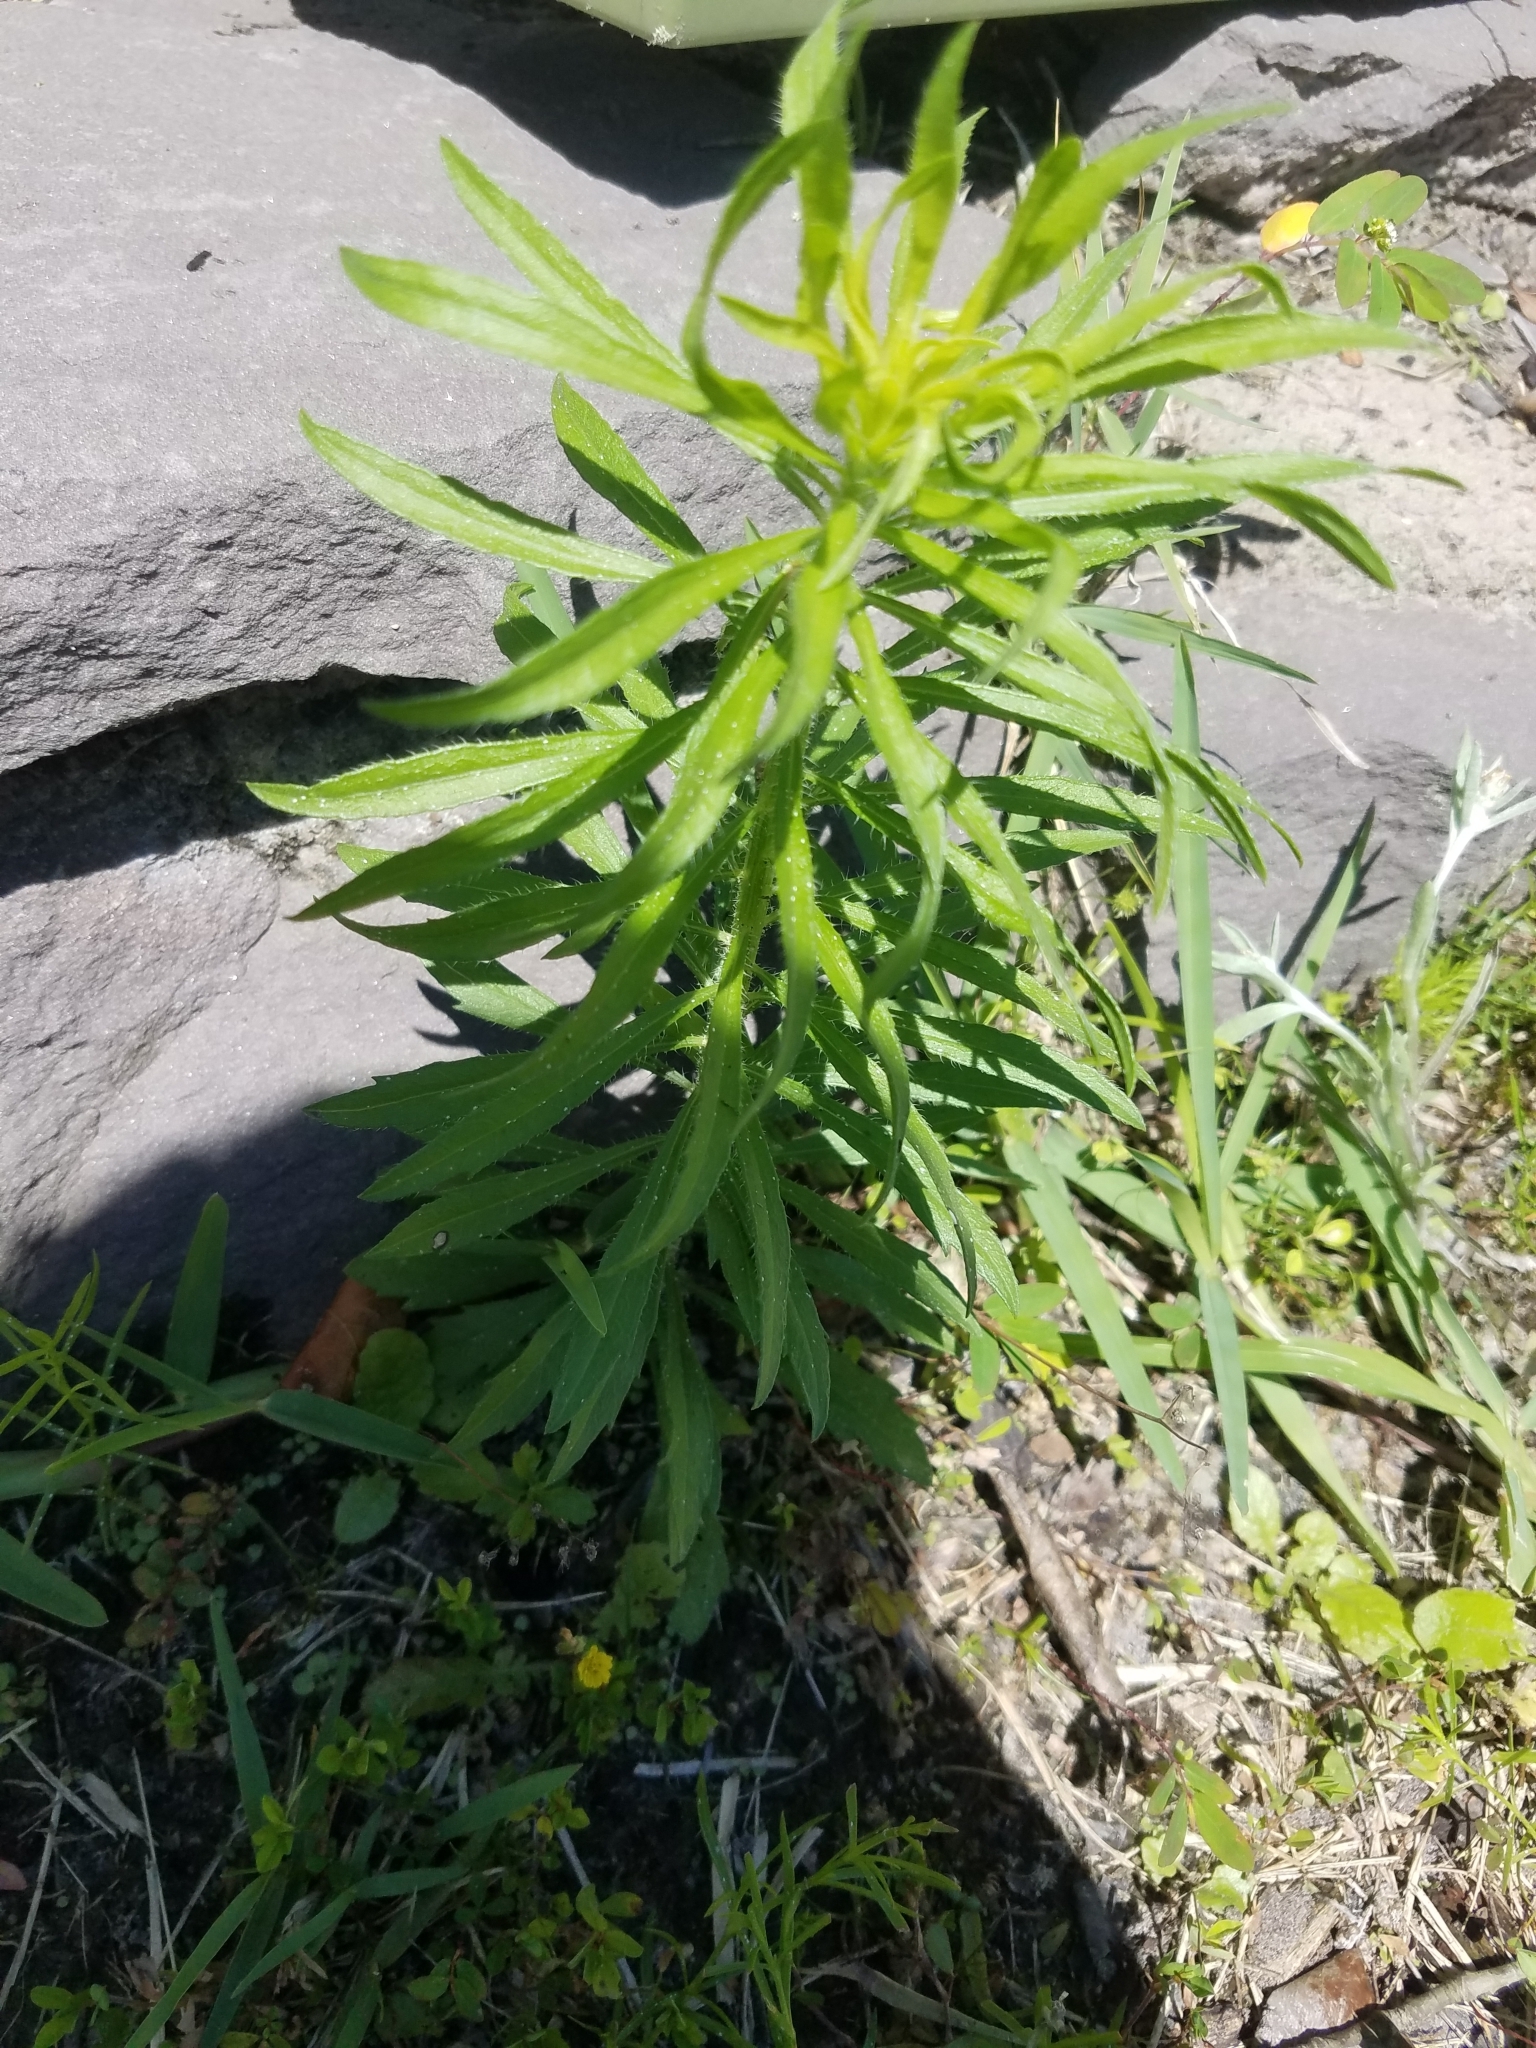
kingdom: Plantae
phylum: Tracheophyta
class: Magnoliopsida
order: Asterales
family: Asteraceae
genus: Erigeron
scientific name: Erigeron canadensis
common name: Canadian fleabane
